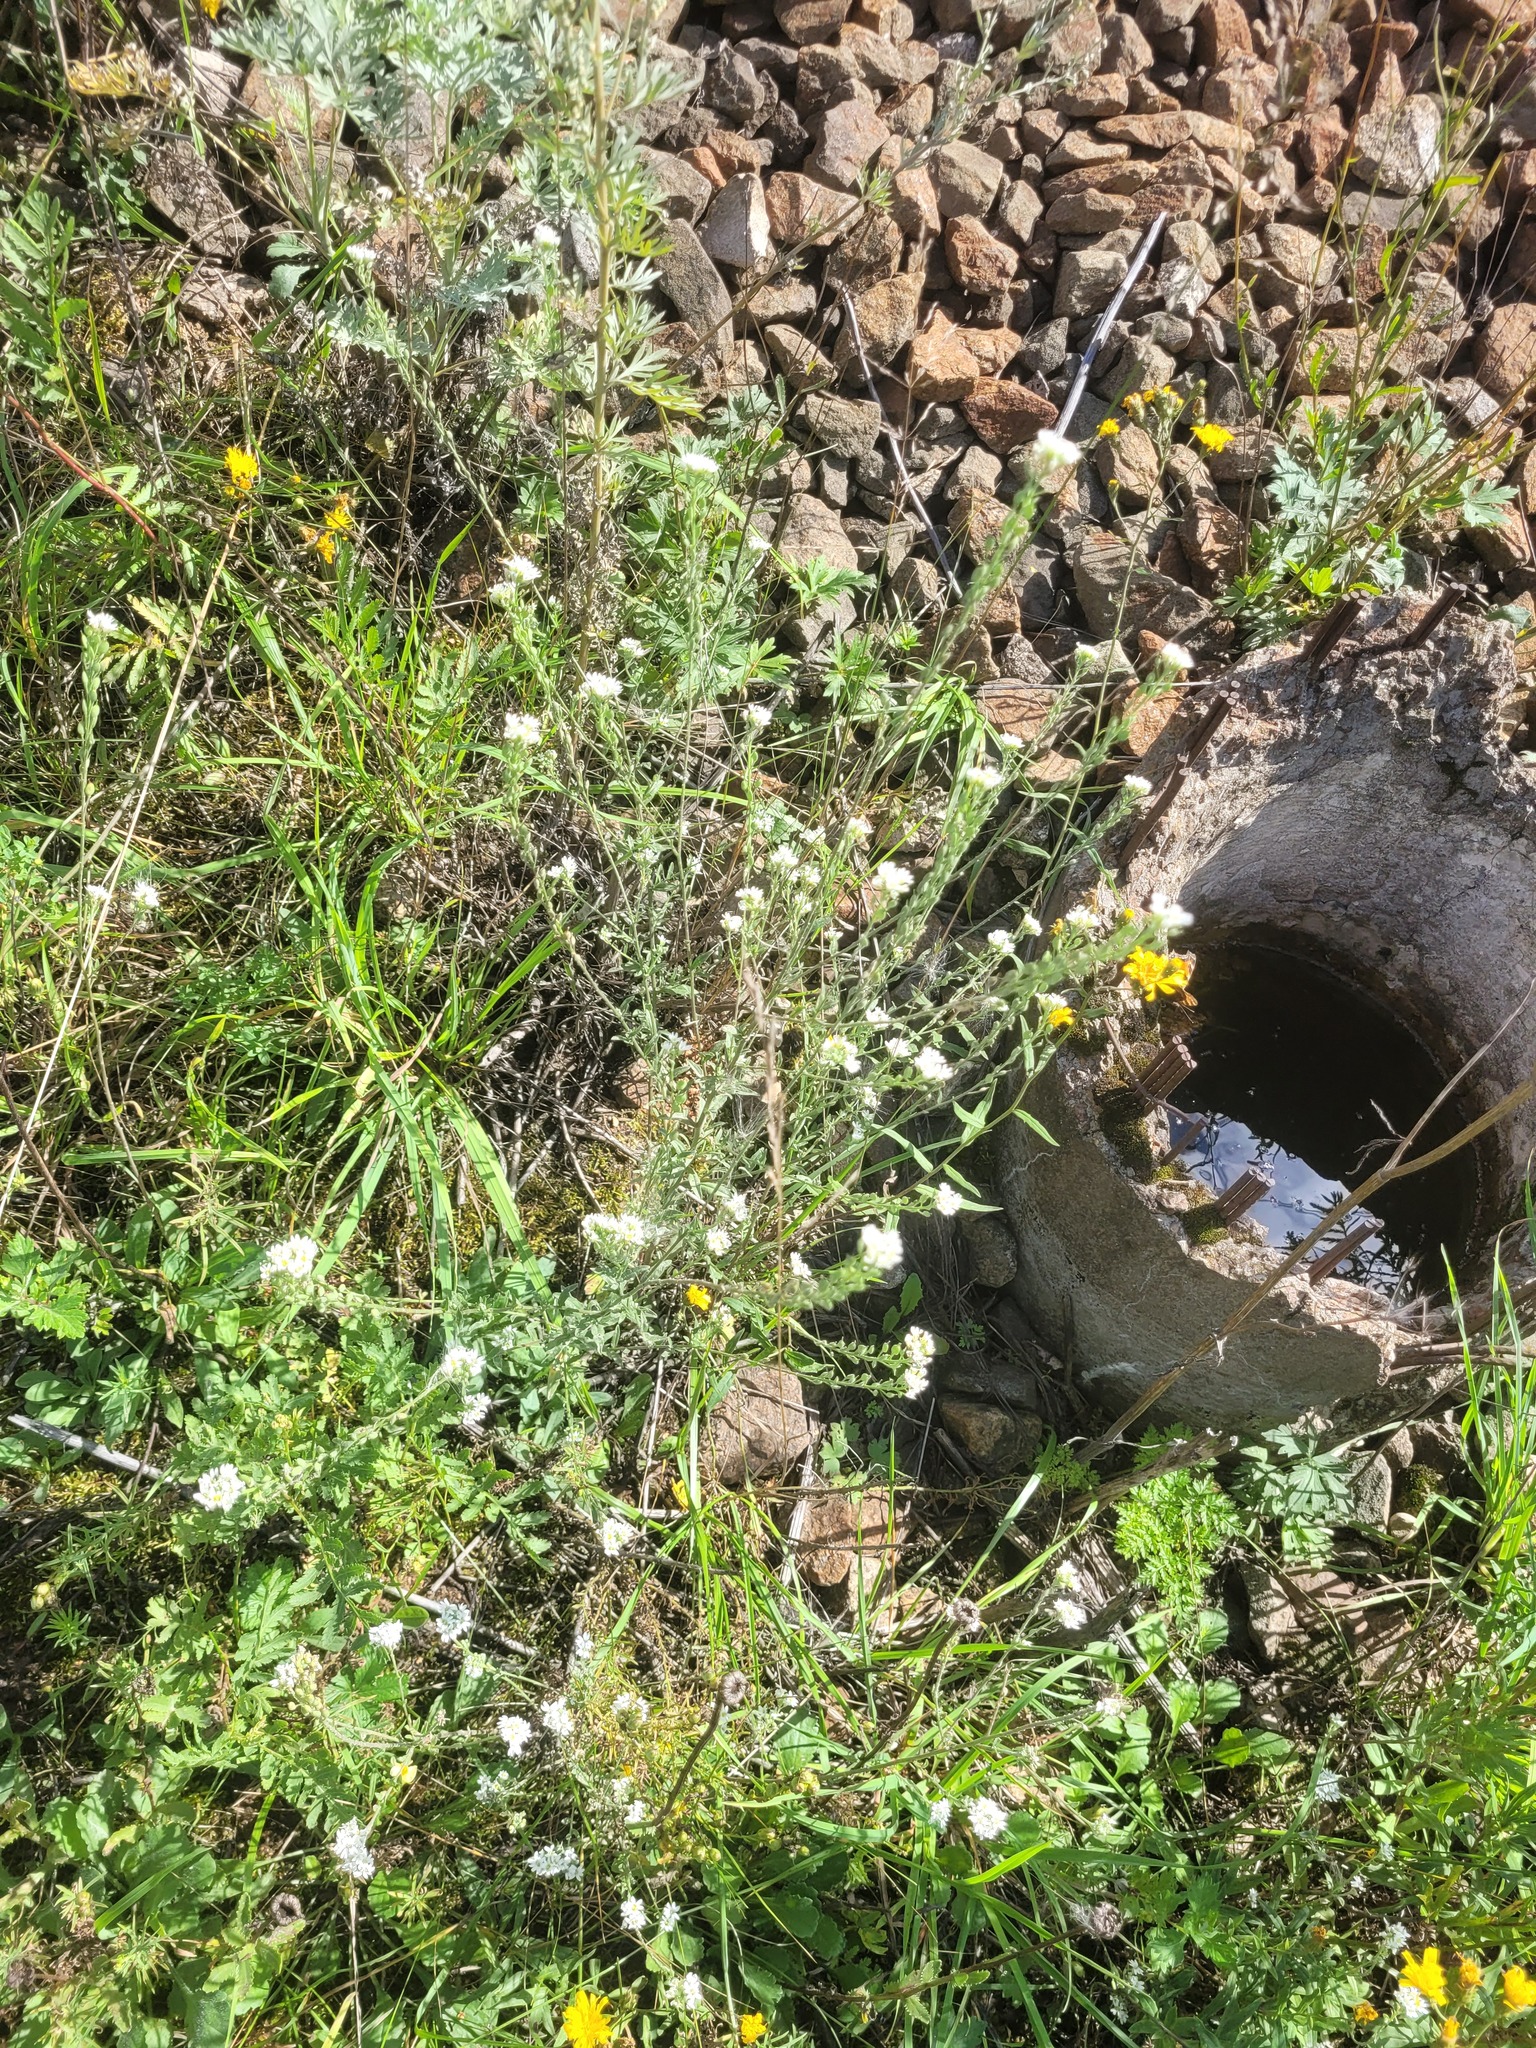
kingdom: Plantae
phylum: Tracheophyta
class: Magnoliopsida
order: Brassicales
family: Brassicaceae
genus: Berteroa
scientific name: Berteroa incana
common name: Hoary alison
